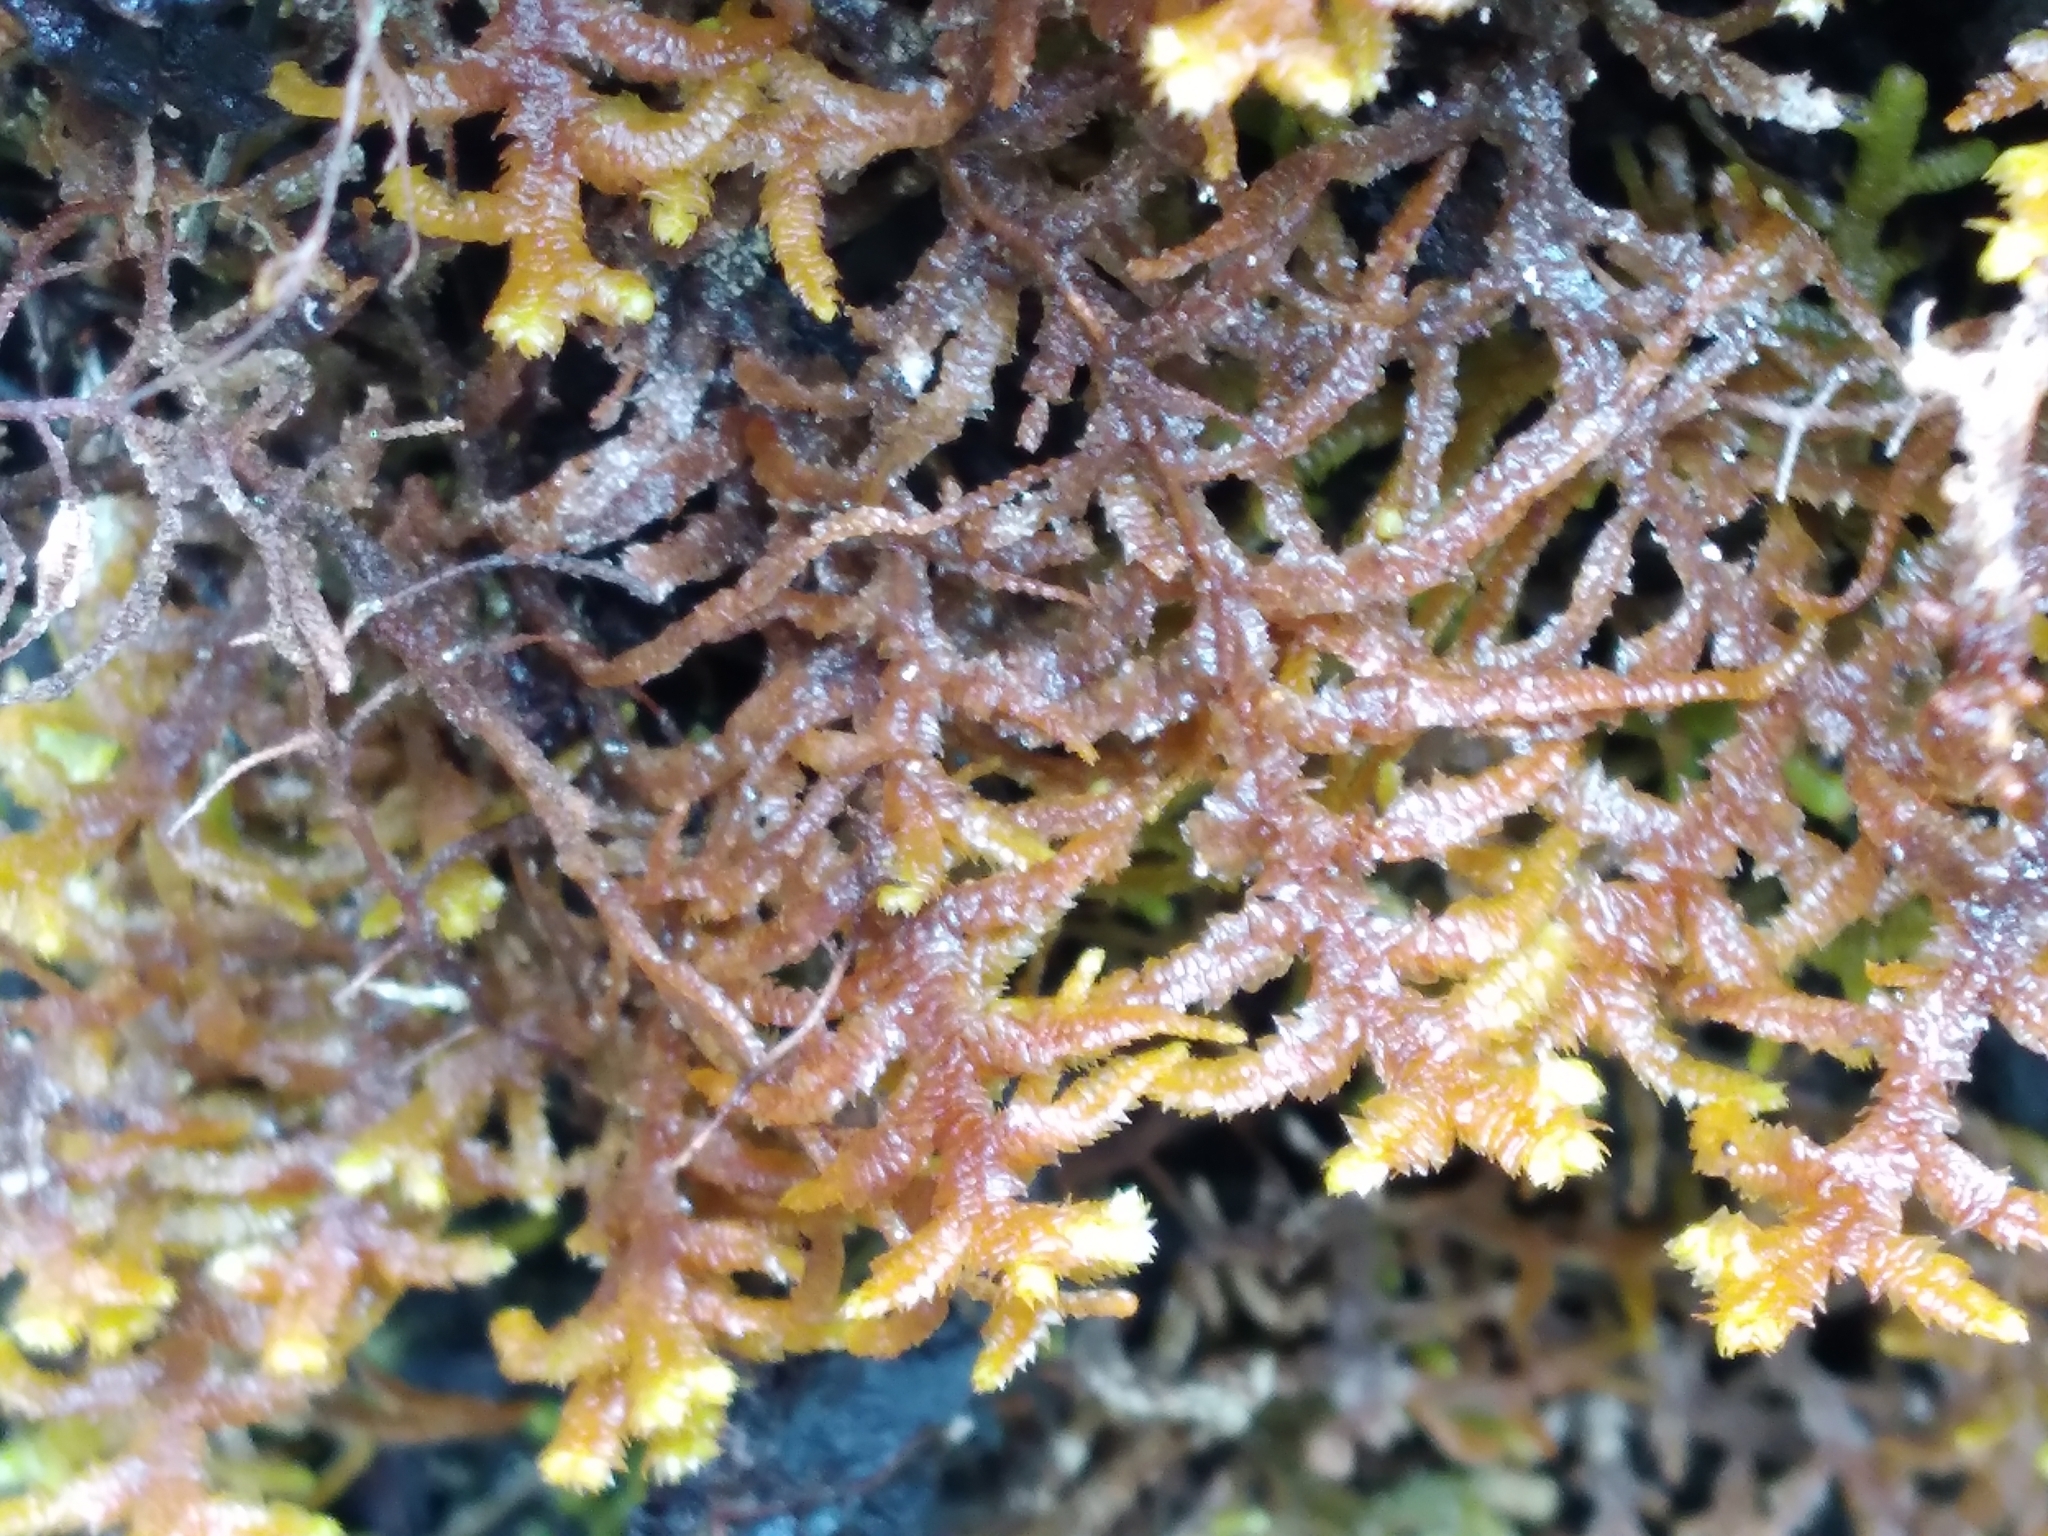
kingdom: Plantae
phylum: Marchantiophyta
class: Jungermanniopsida
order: Jungermanniales
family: Mastigophoraceae
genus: Dendromastigophora
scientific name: Dendromastigophora flagellifera
